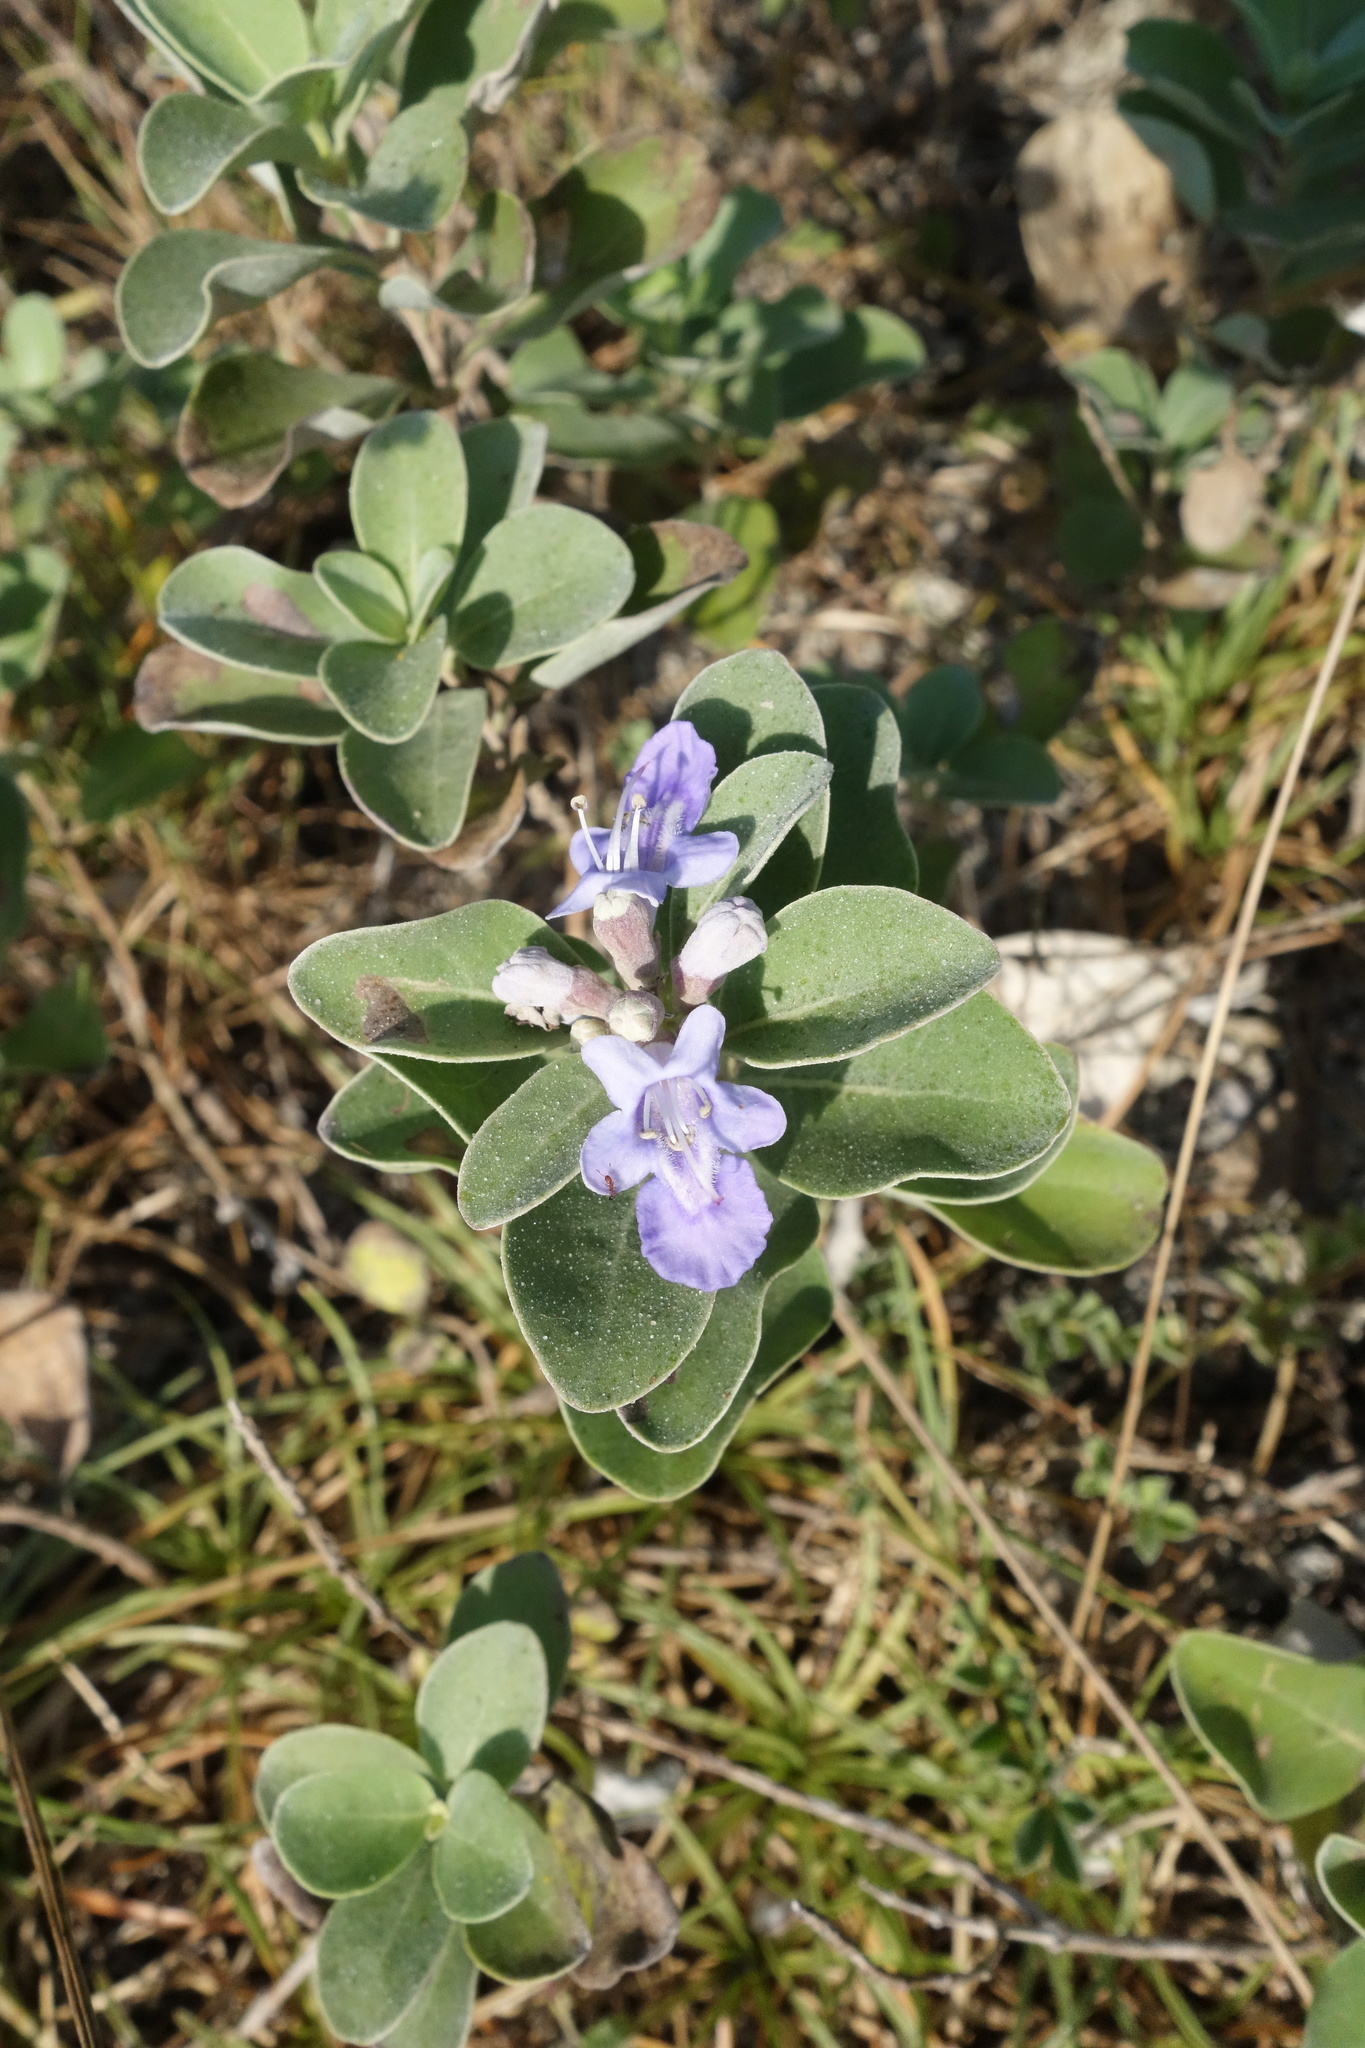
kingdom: Plantae
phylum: Tracheophyta
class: Magnoliopsida
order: Lamiales
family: Lamiaceae
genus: Vitex
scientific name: Vitex rotundifolia
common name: Beach vitex
